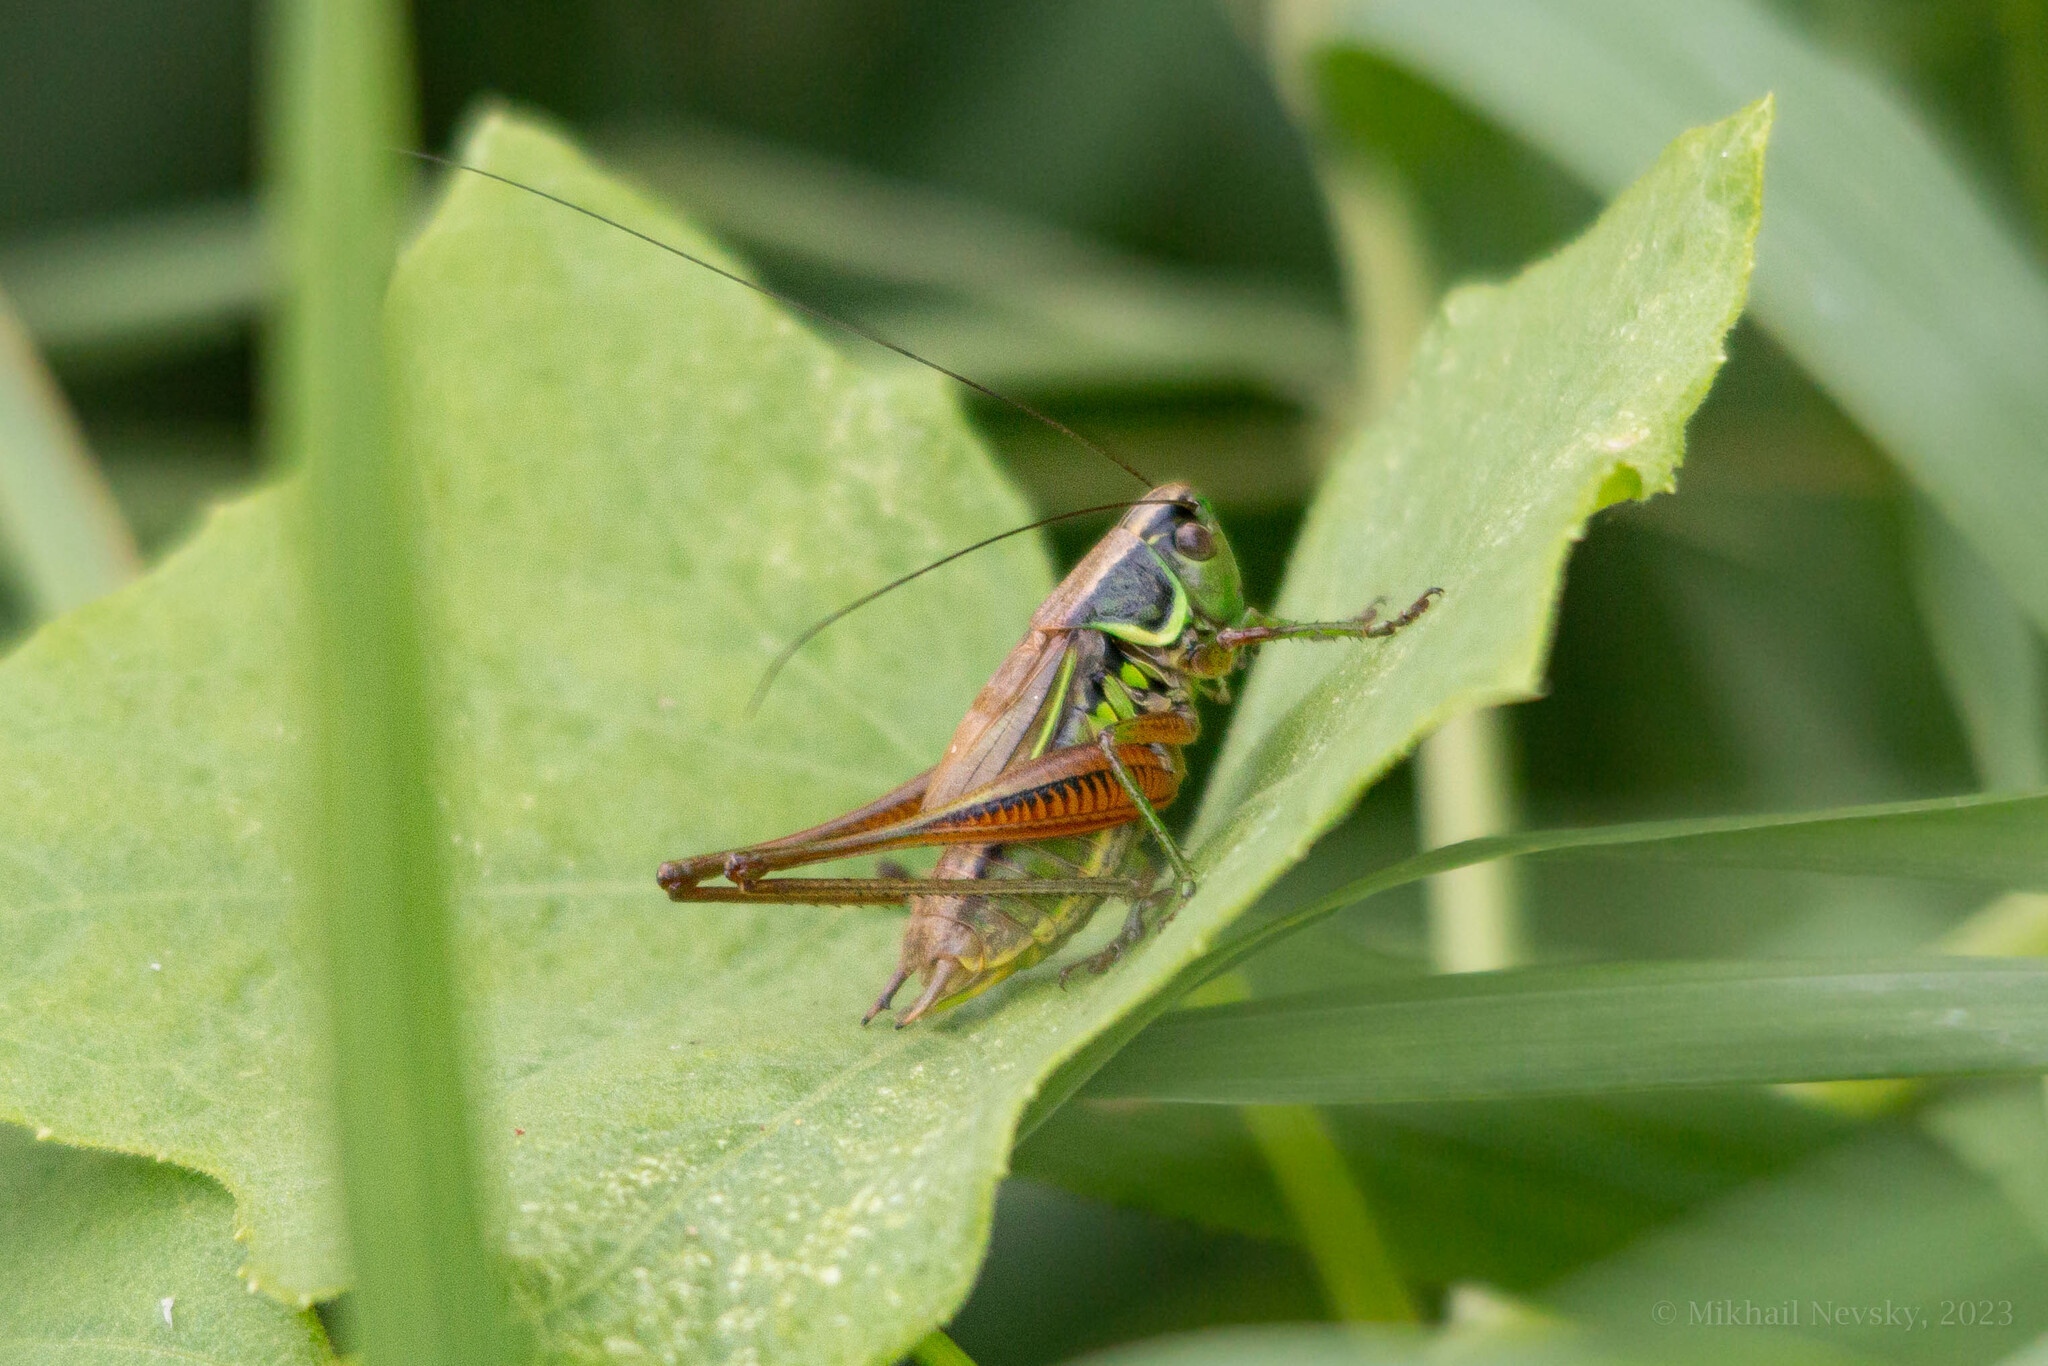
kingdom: Animalia
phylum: Arthropoda
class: Insecta
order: Orthoptera
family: Tettigoniidae
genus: Roeseliana
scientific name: Roeseliana roeselii
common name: Roesel's bush cricket
